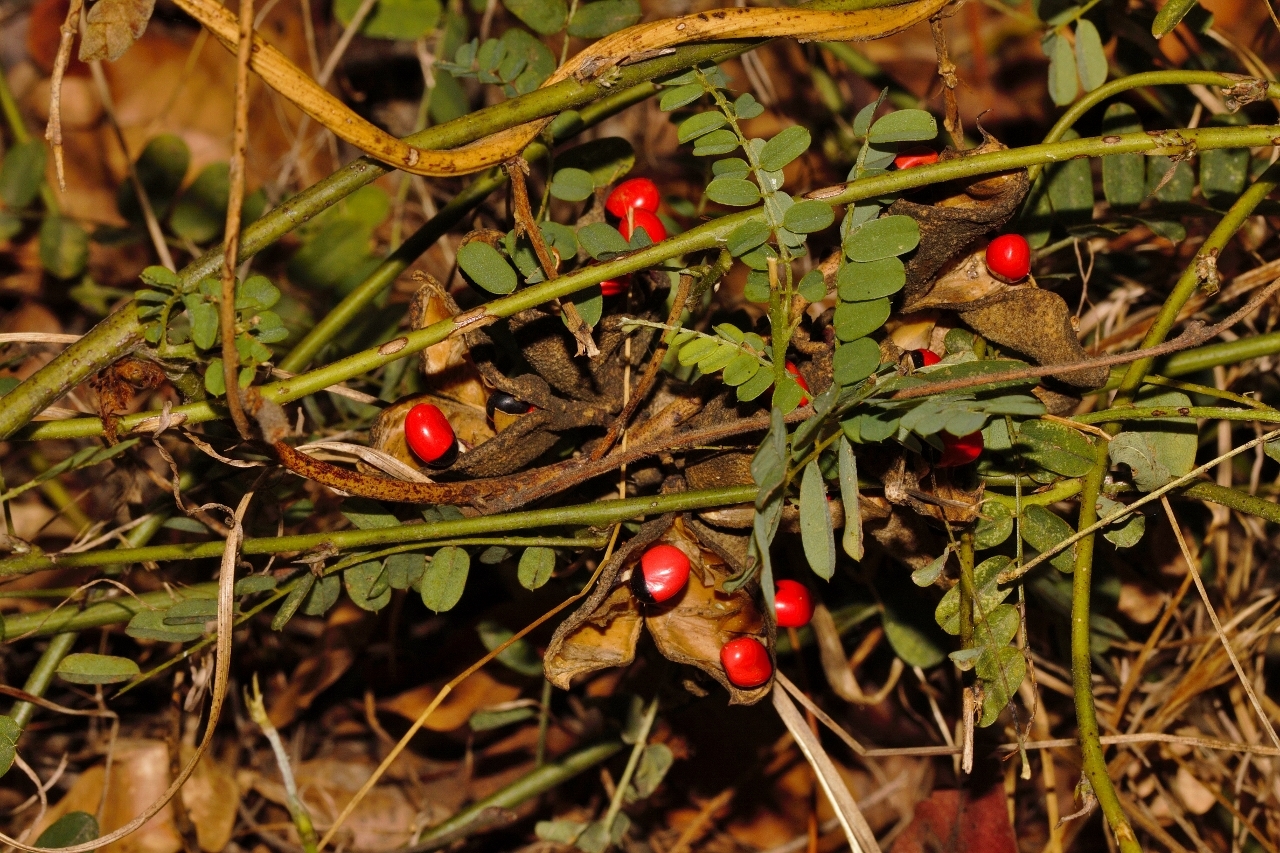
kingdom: Plantae
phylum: Tracheophyta
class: Magnoliopsida
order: Fabales
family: Fabaceae
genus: Abrus
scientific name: Abrus precatorius
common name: Rosarypea
